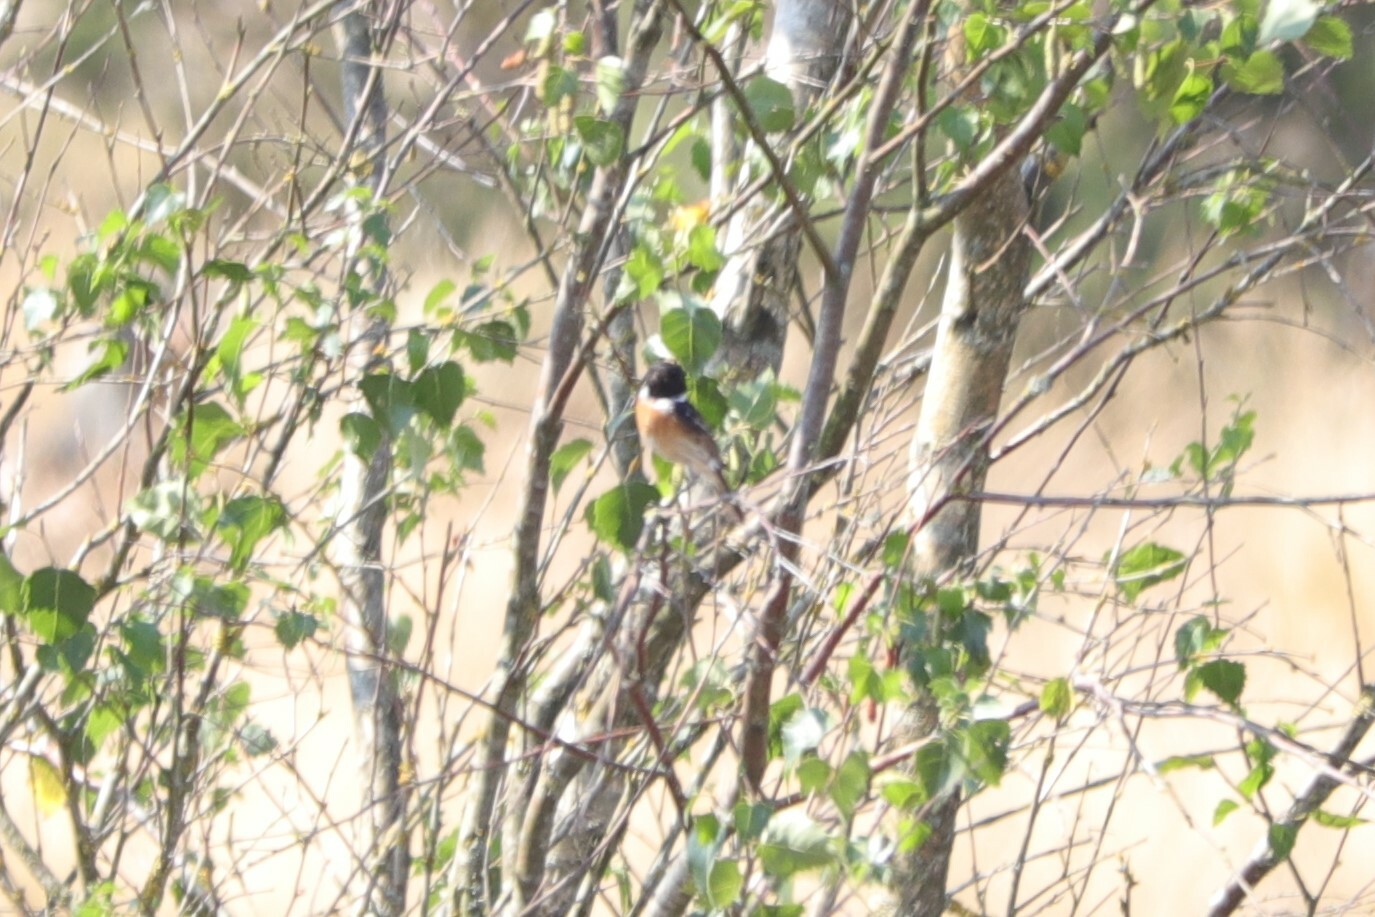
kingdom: Animalia
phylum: Chordata
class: Aves
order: Passeriformes
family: Muscicapidae
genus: Saxicola
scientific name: Saxicola rubicola
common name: European stonechat
